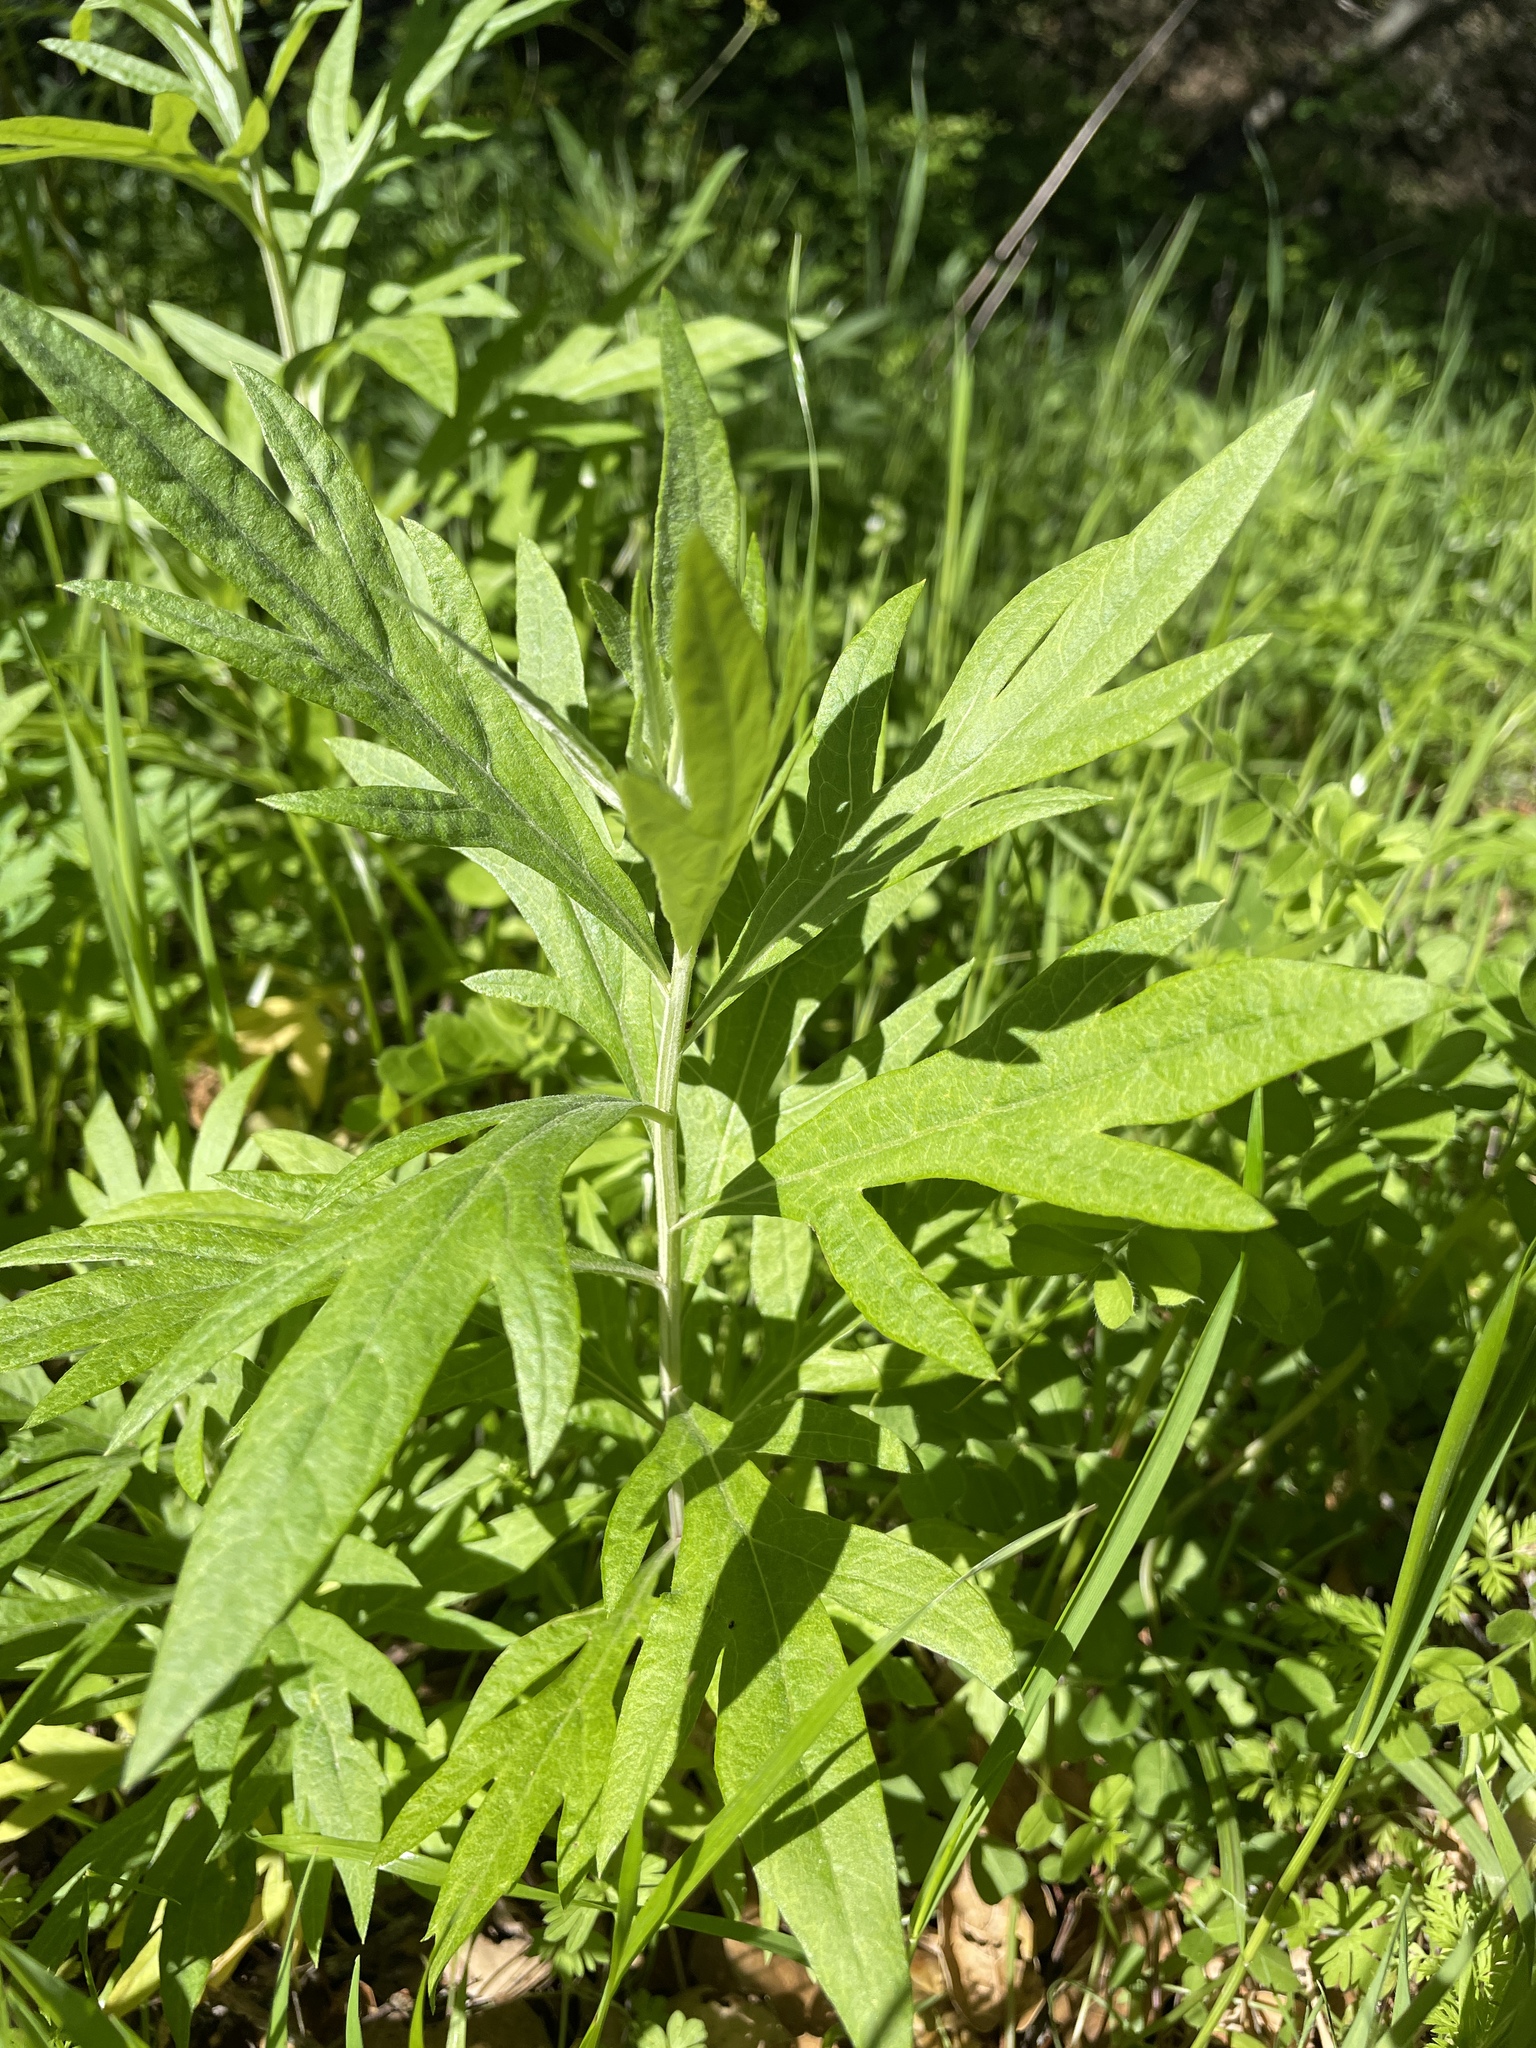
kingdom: Plantae
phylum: Tracheophyta
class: Magnoliopsida
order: Asterales
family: Asteraceae
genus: Artemisia
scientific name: Artemisia douglasiana
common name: Northwest mugwort
